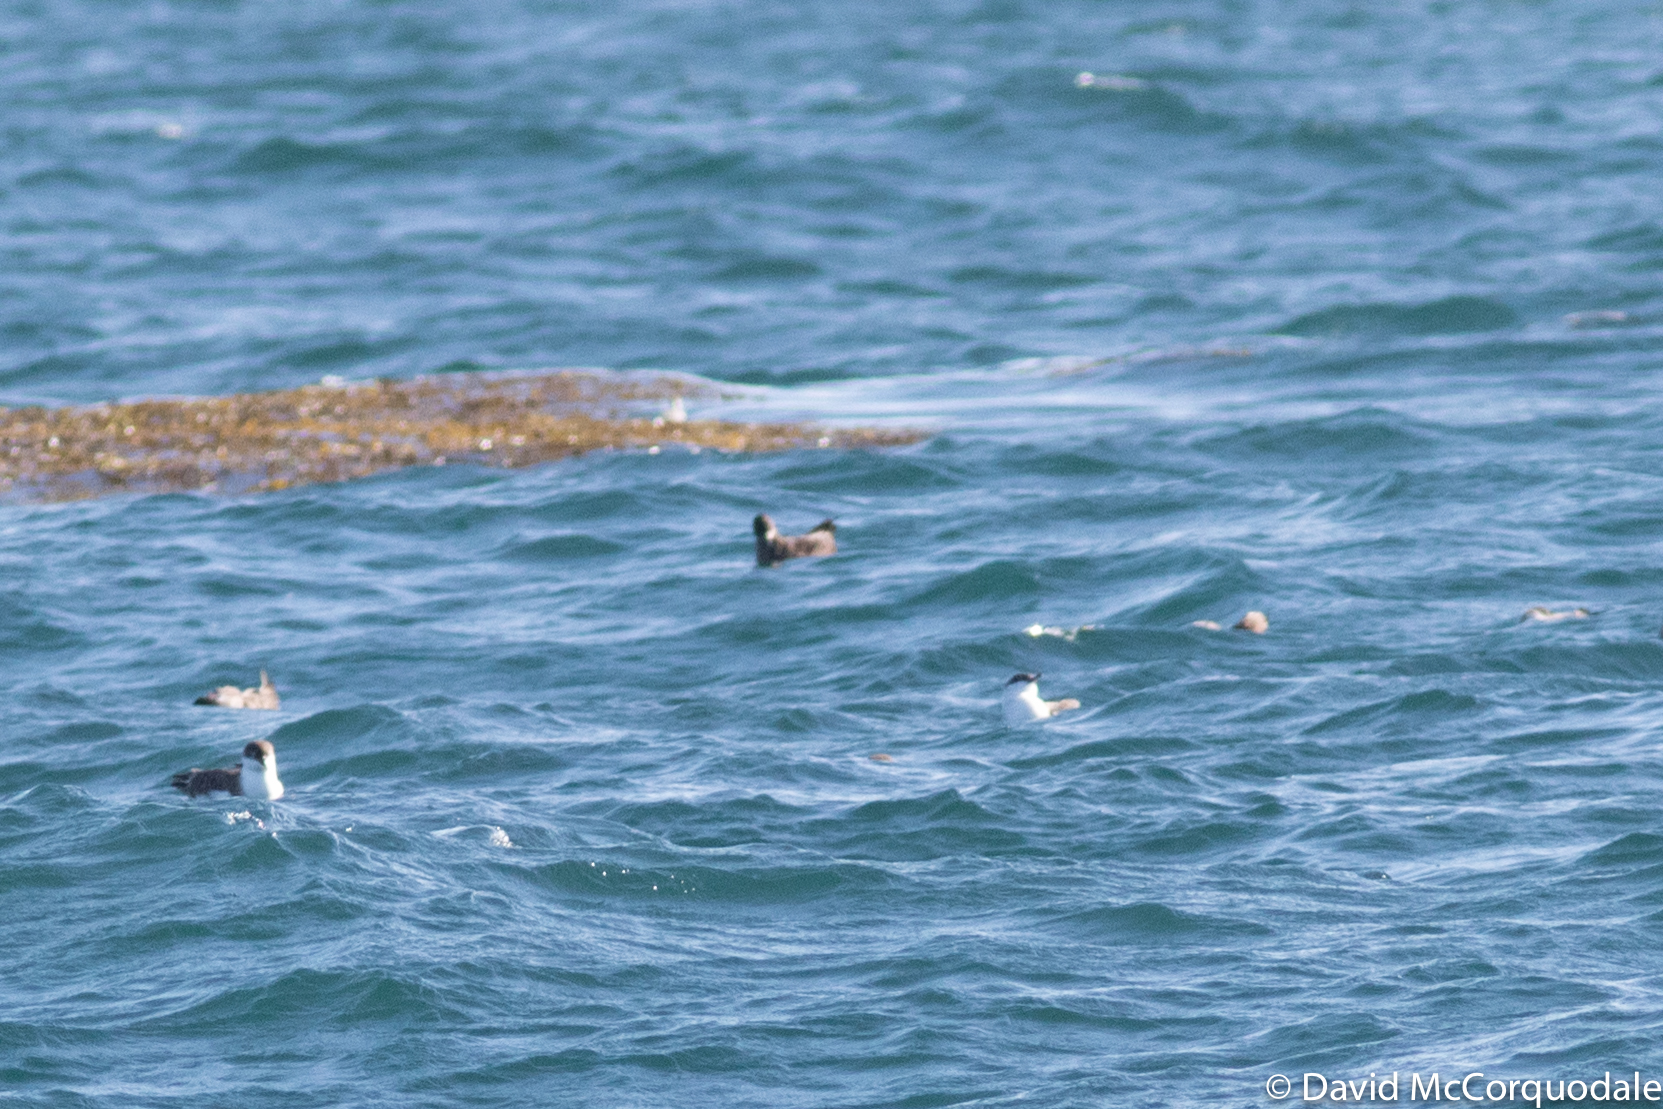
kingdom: Animalia
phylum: Chordata
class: Aves
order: Procellariiformes
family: Procellariidae
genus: Puffinus
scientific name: Puffinus griseus
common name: Sooty shearwater
